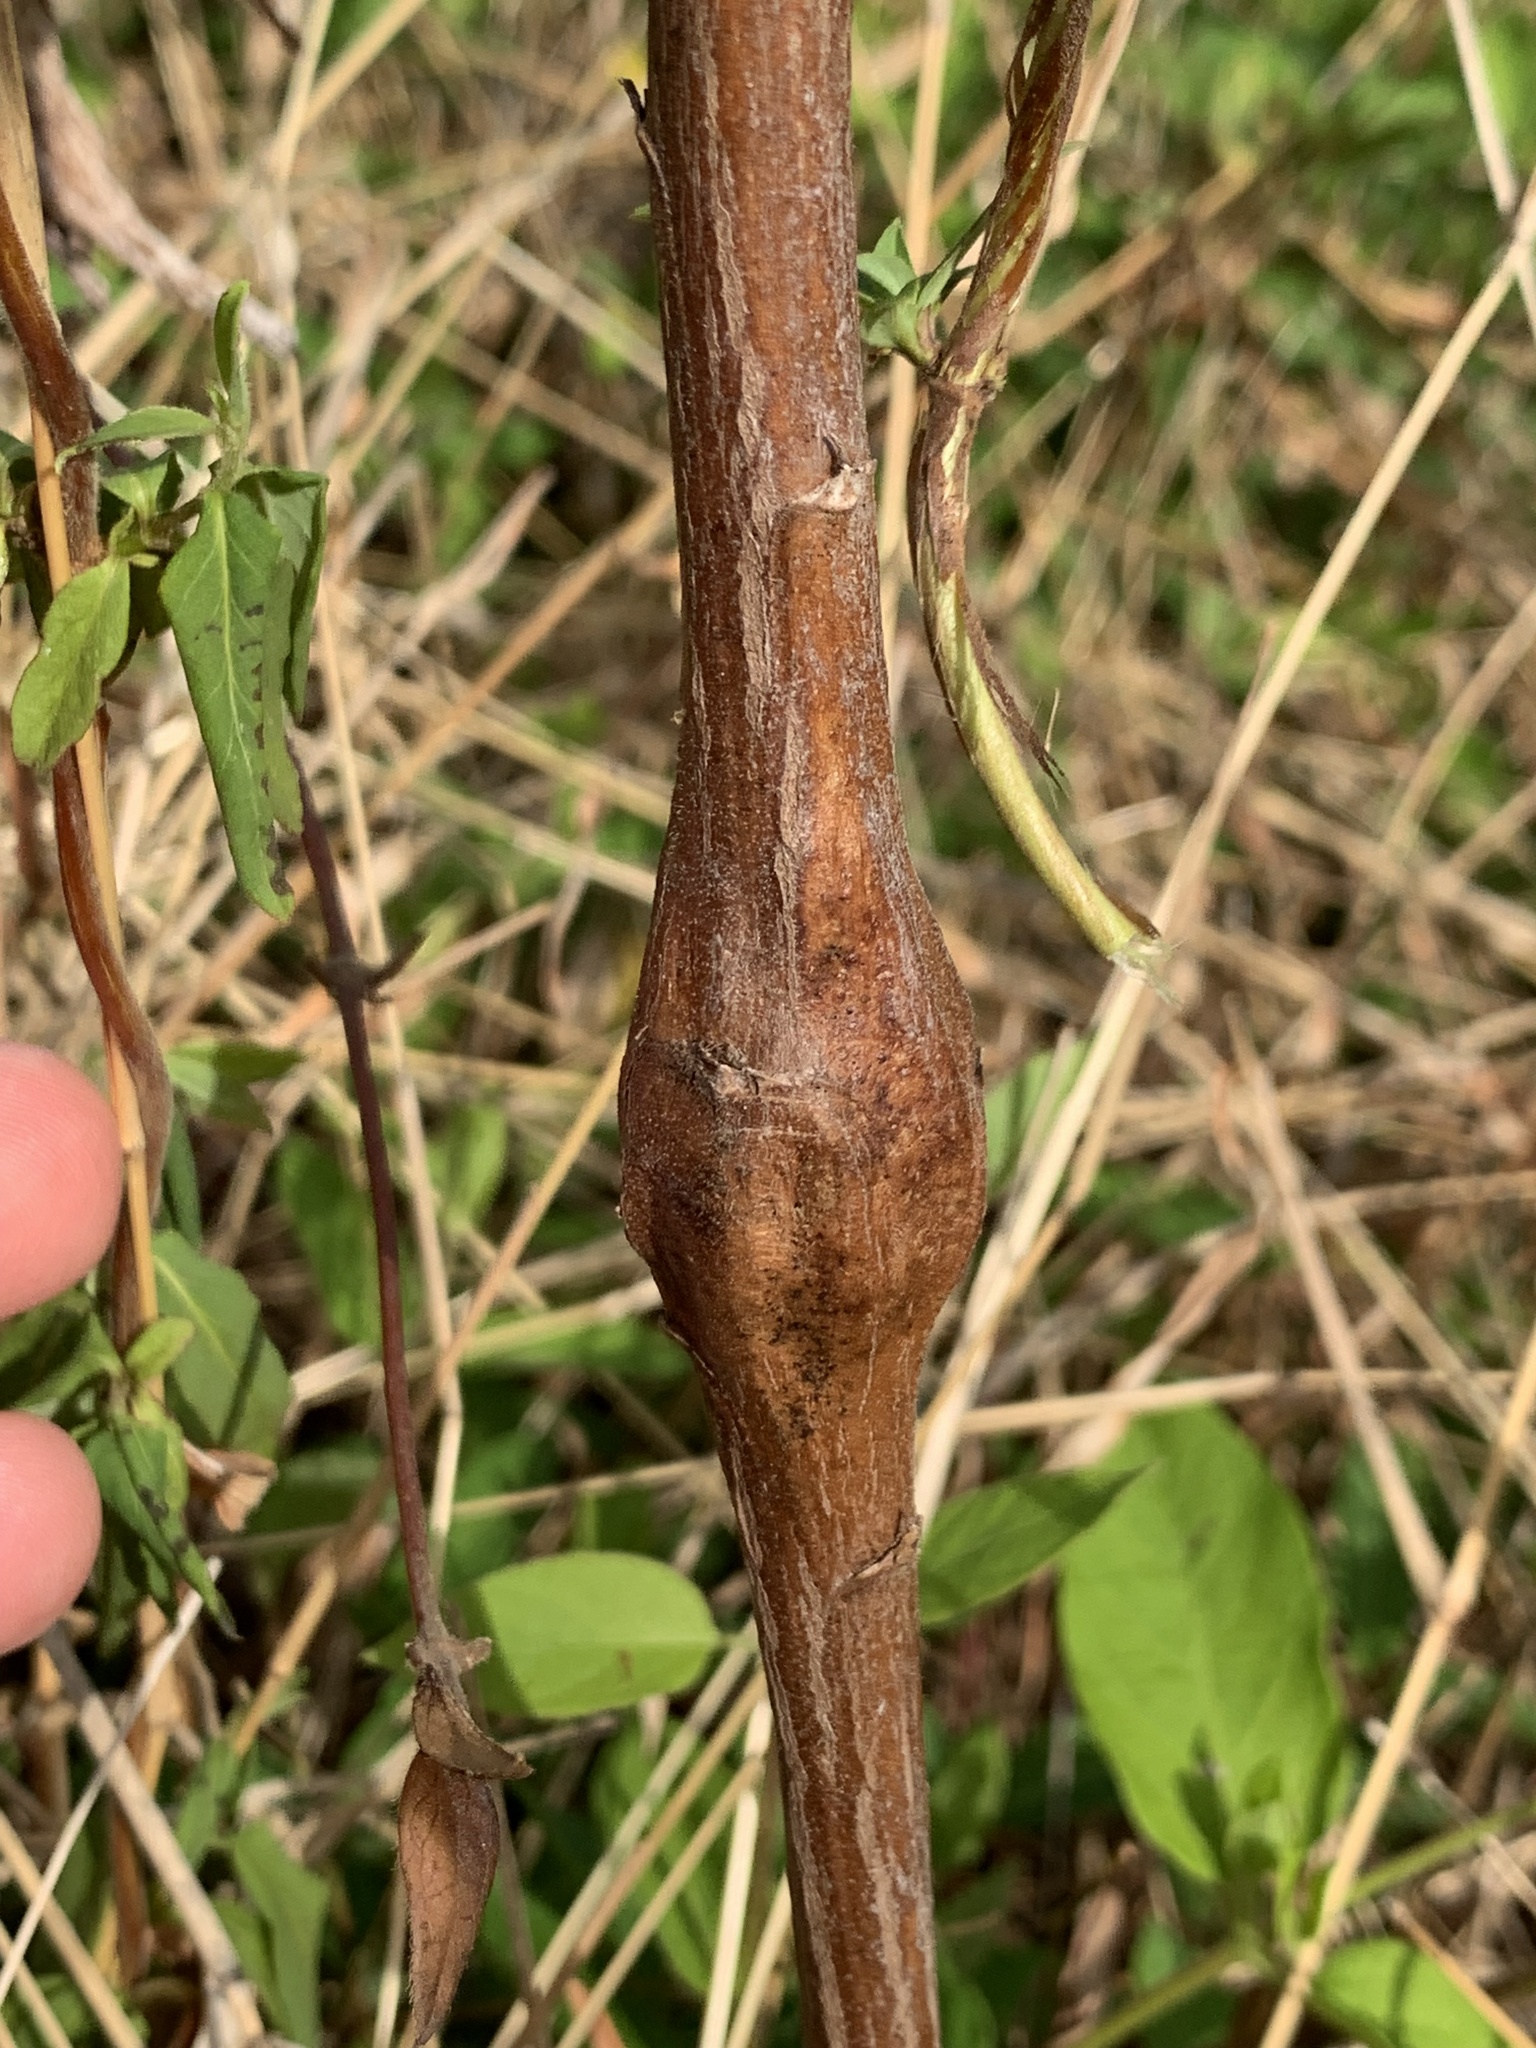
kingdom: Animalia
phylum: Arthropoda
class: Insecta
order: Lepidoptera
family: Gelechiidae
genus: Gnorimoschema
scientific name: Gnorimoschema gallaesolidaginis
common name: Goldenrod elliptical-gall moth
